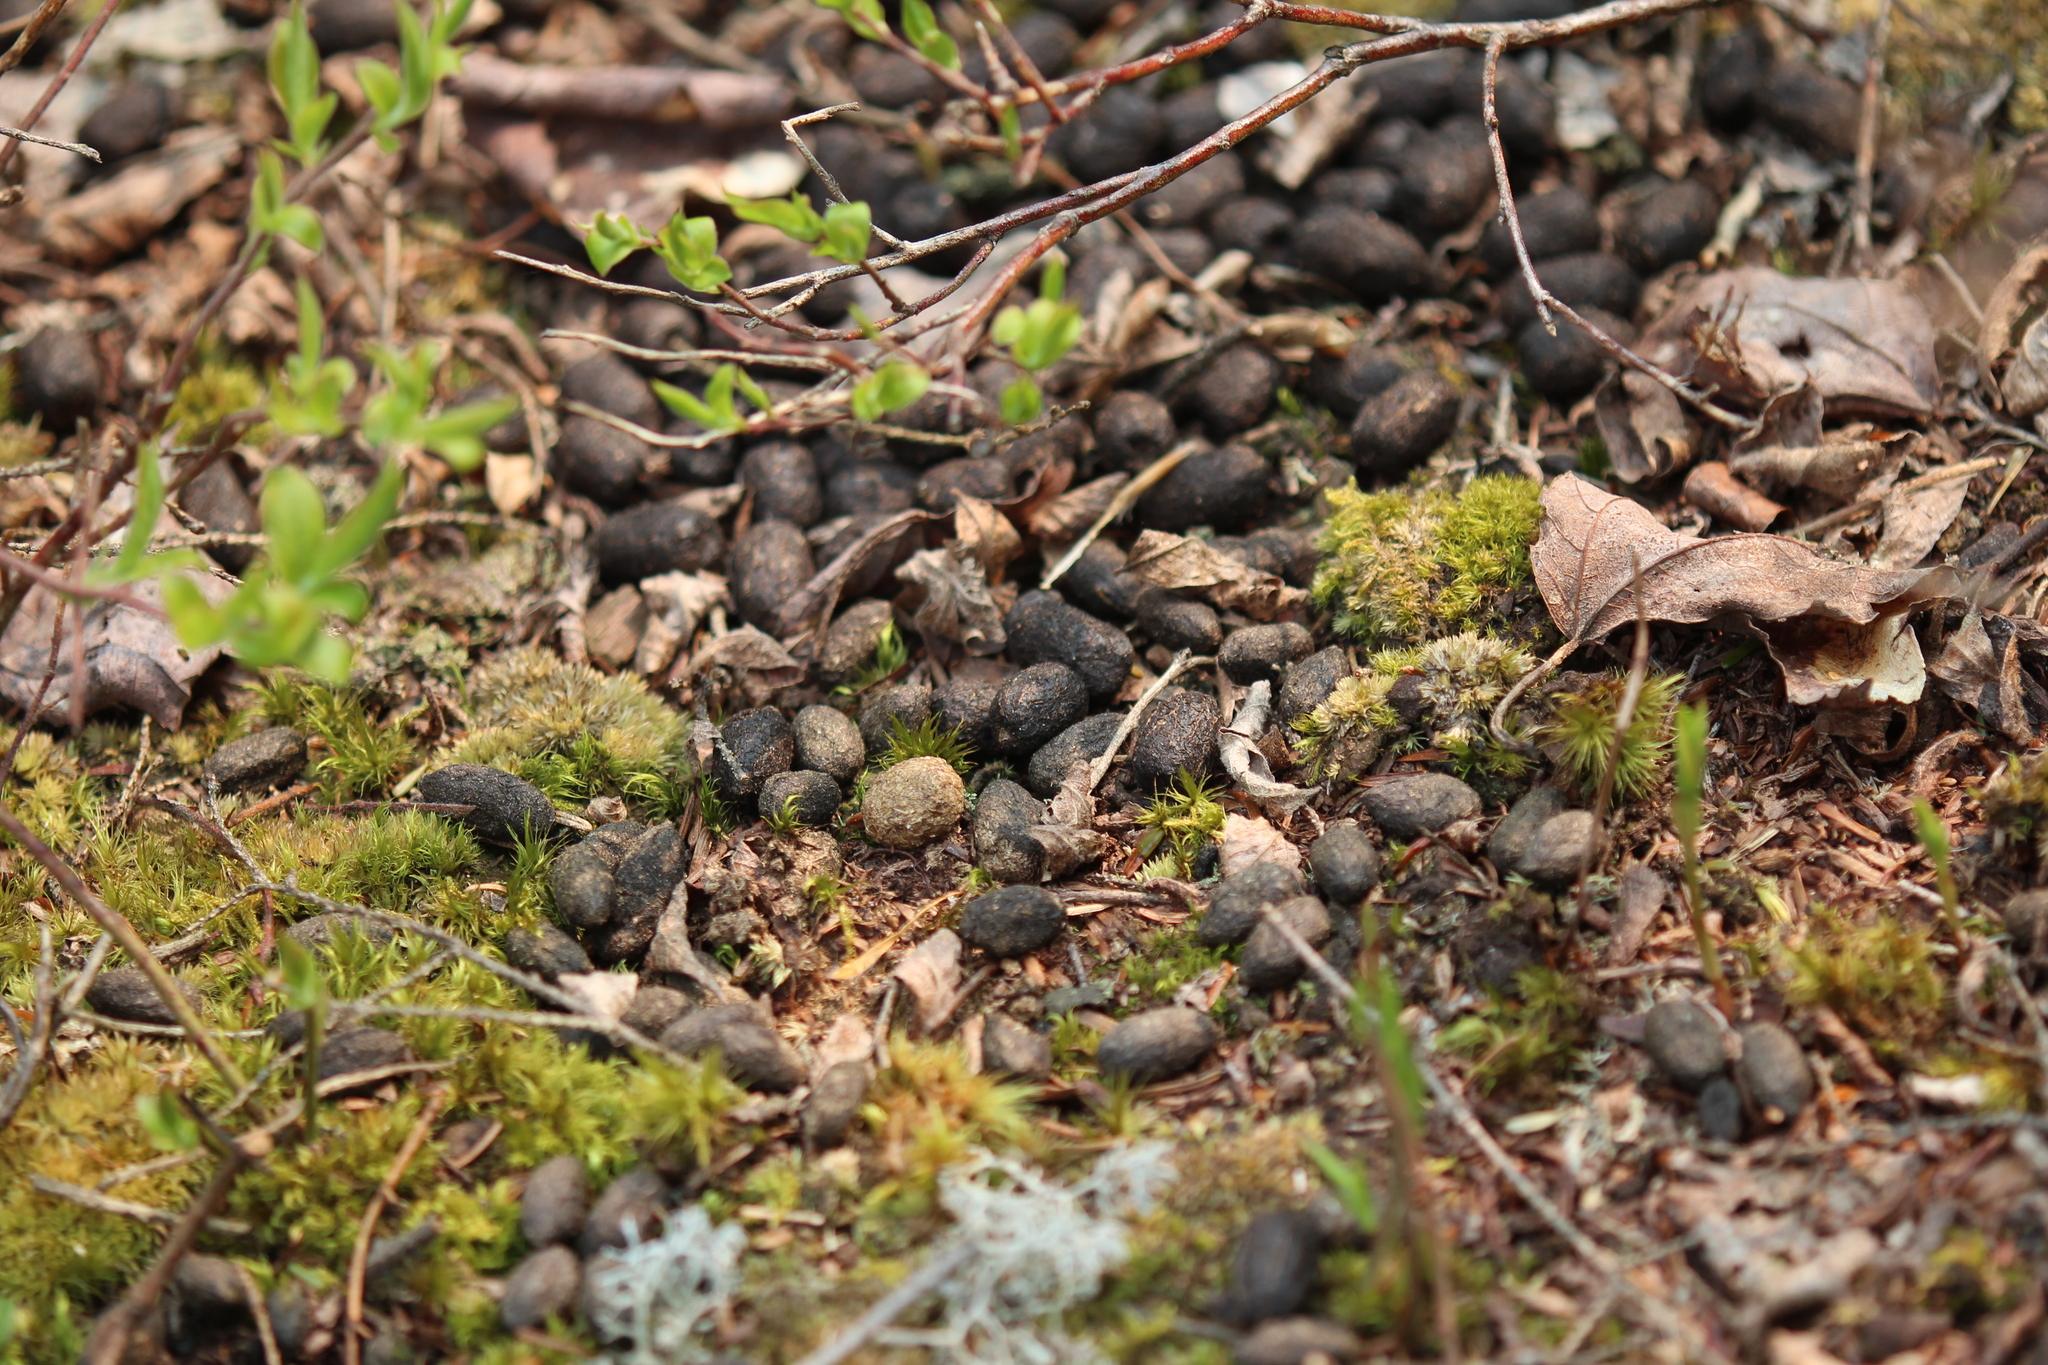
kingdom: Animalia
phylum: Chordata
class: Mammalia
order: Artiodactyla
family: Cervidae
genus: Odocoileus
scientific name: Odocoileus virginianus
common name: White-tailed deer
